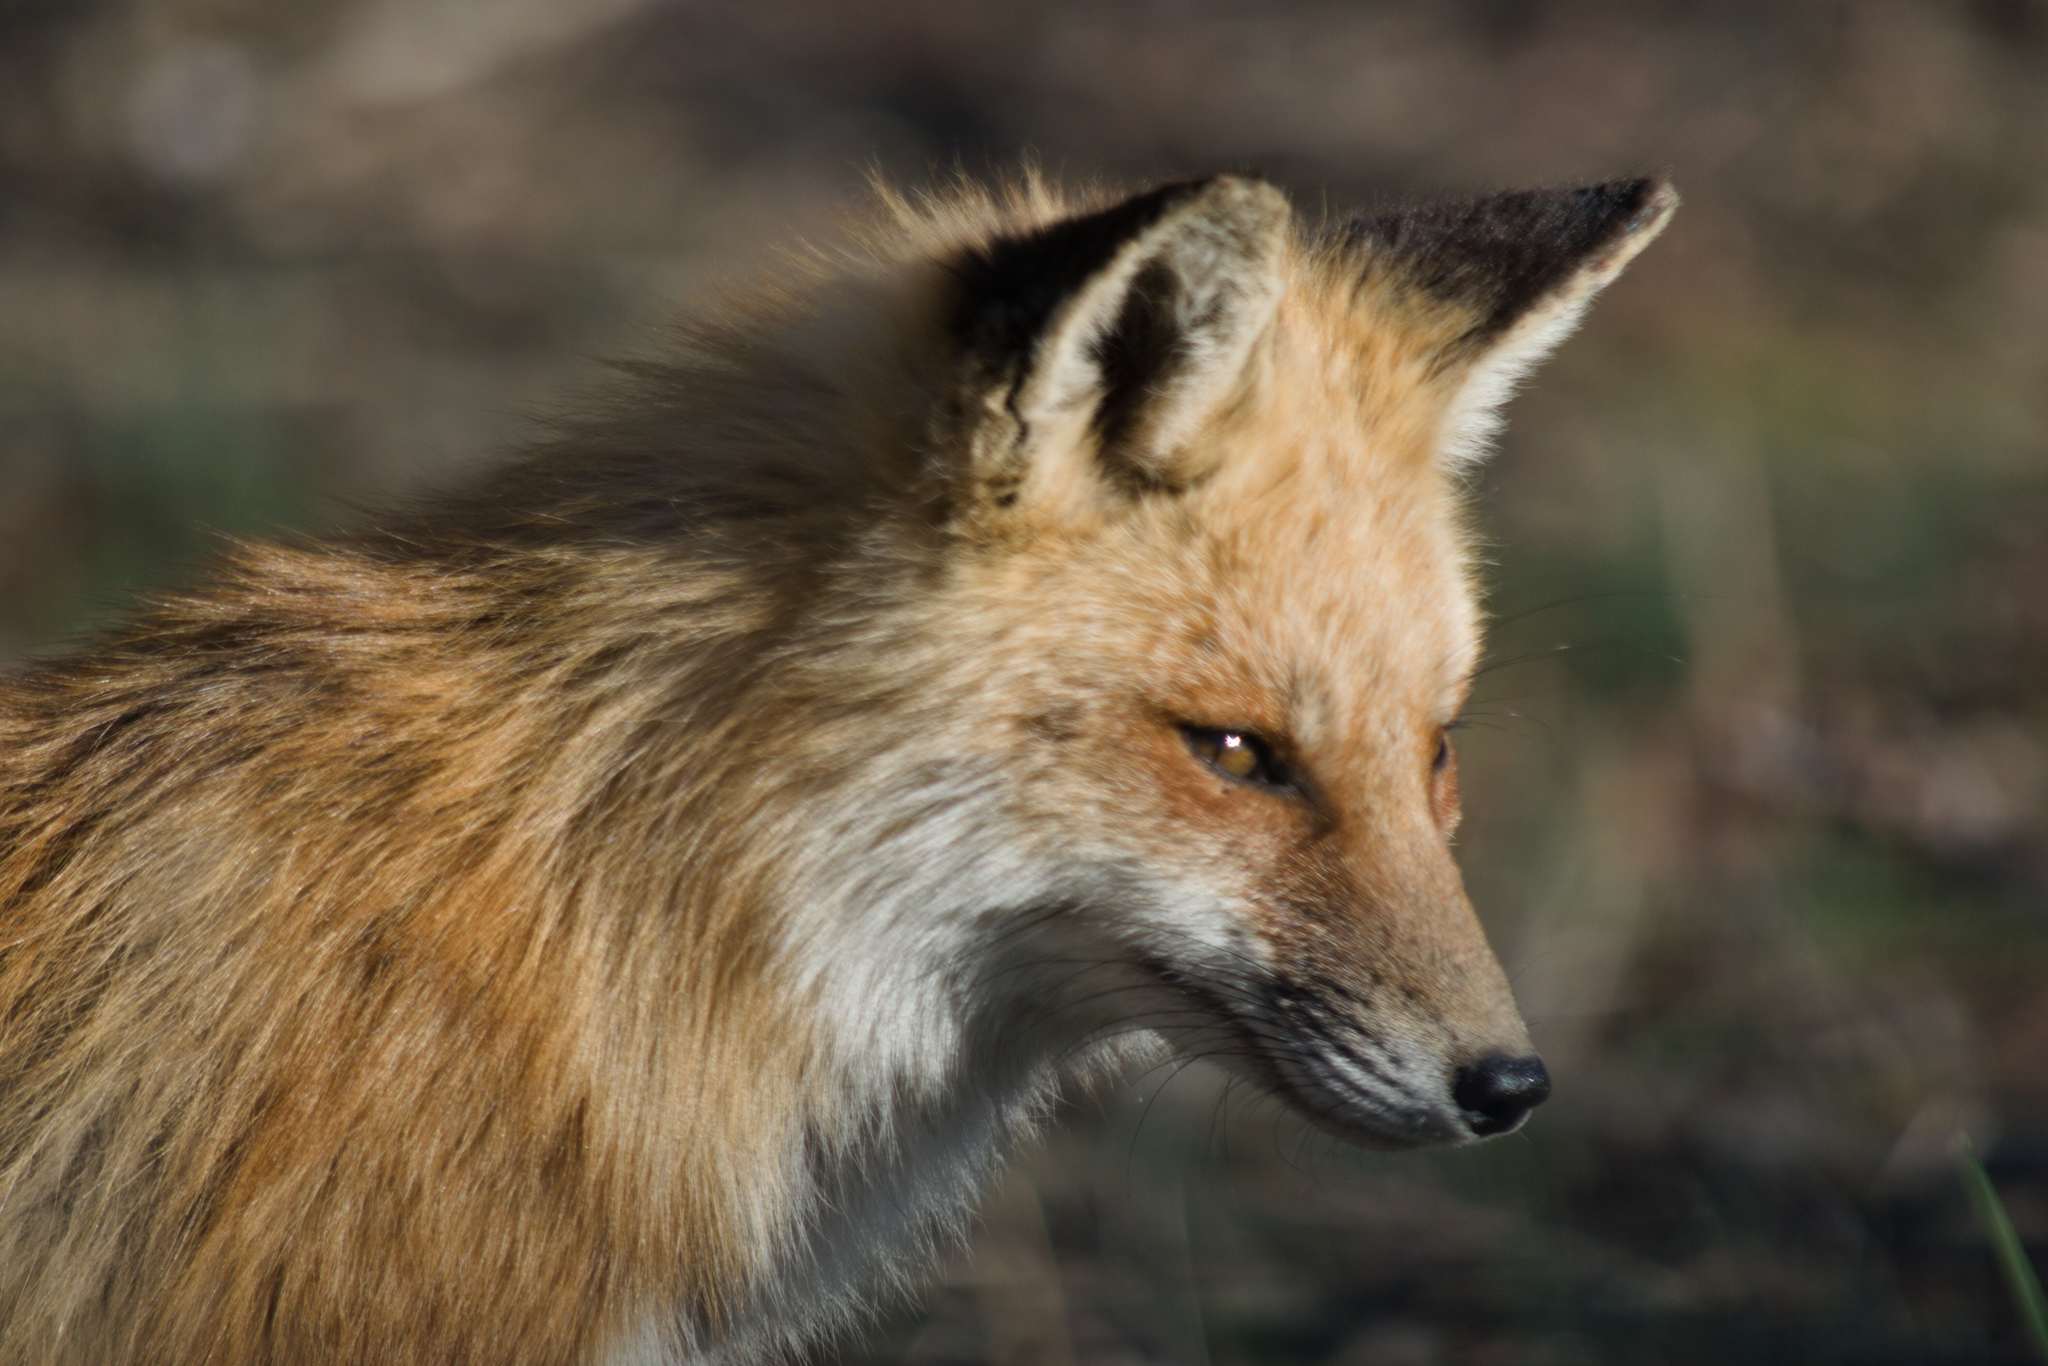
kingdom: Animalia
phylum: Chordata
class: Mammalia
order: Carnivora
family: Canidae
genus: Vulpes
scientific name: Vulpes vulpes
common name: Red fox
